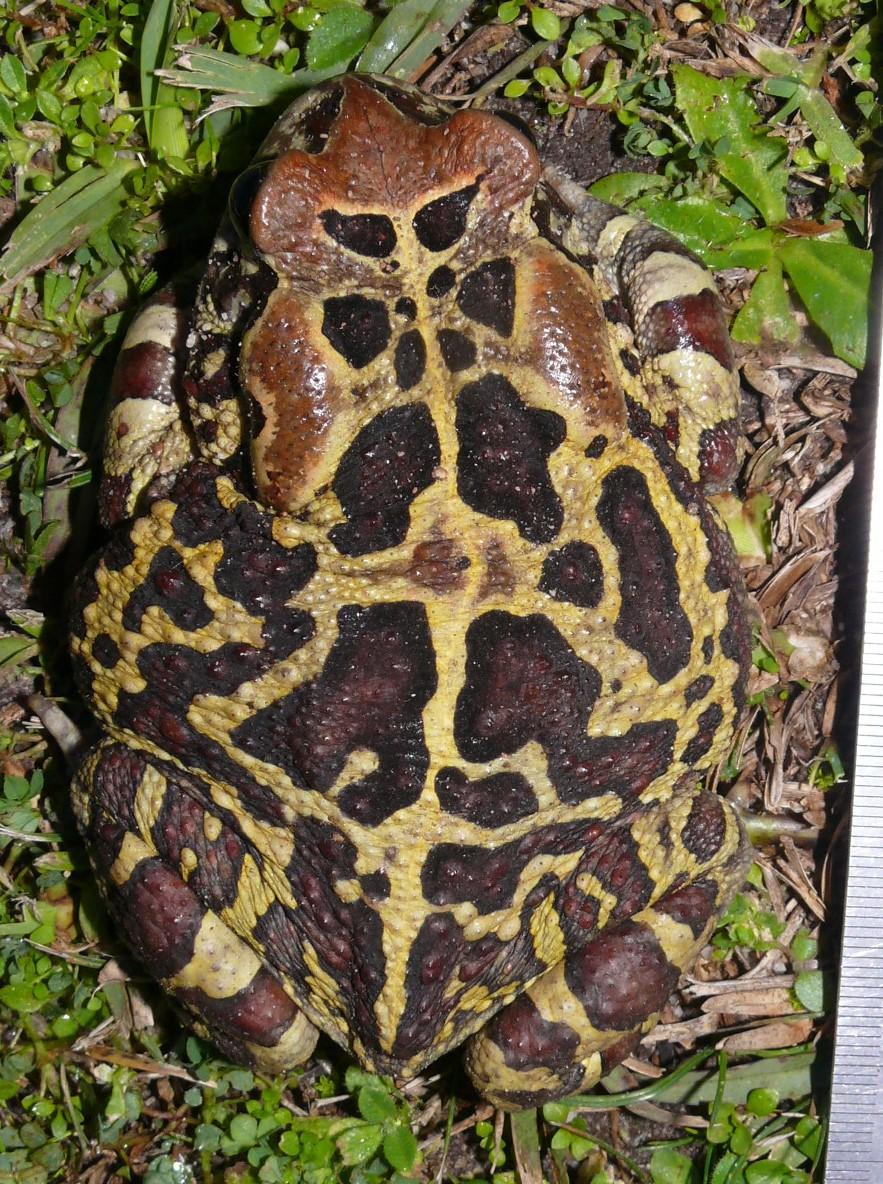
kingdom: Animalia
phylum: Chordata
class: Amphibia
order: Anura
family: Bufonidae
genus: Sclerophrys
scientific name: Sclerophrys pantherina
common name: Panther toad
